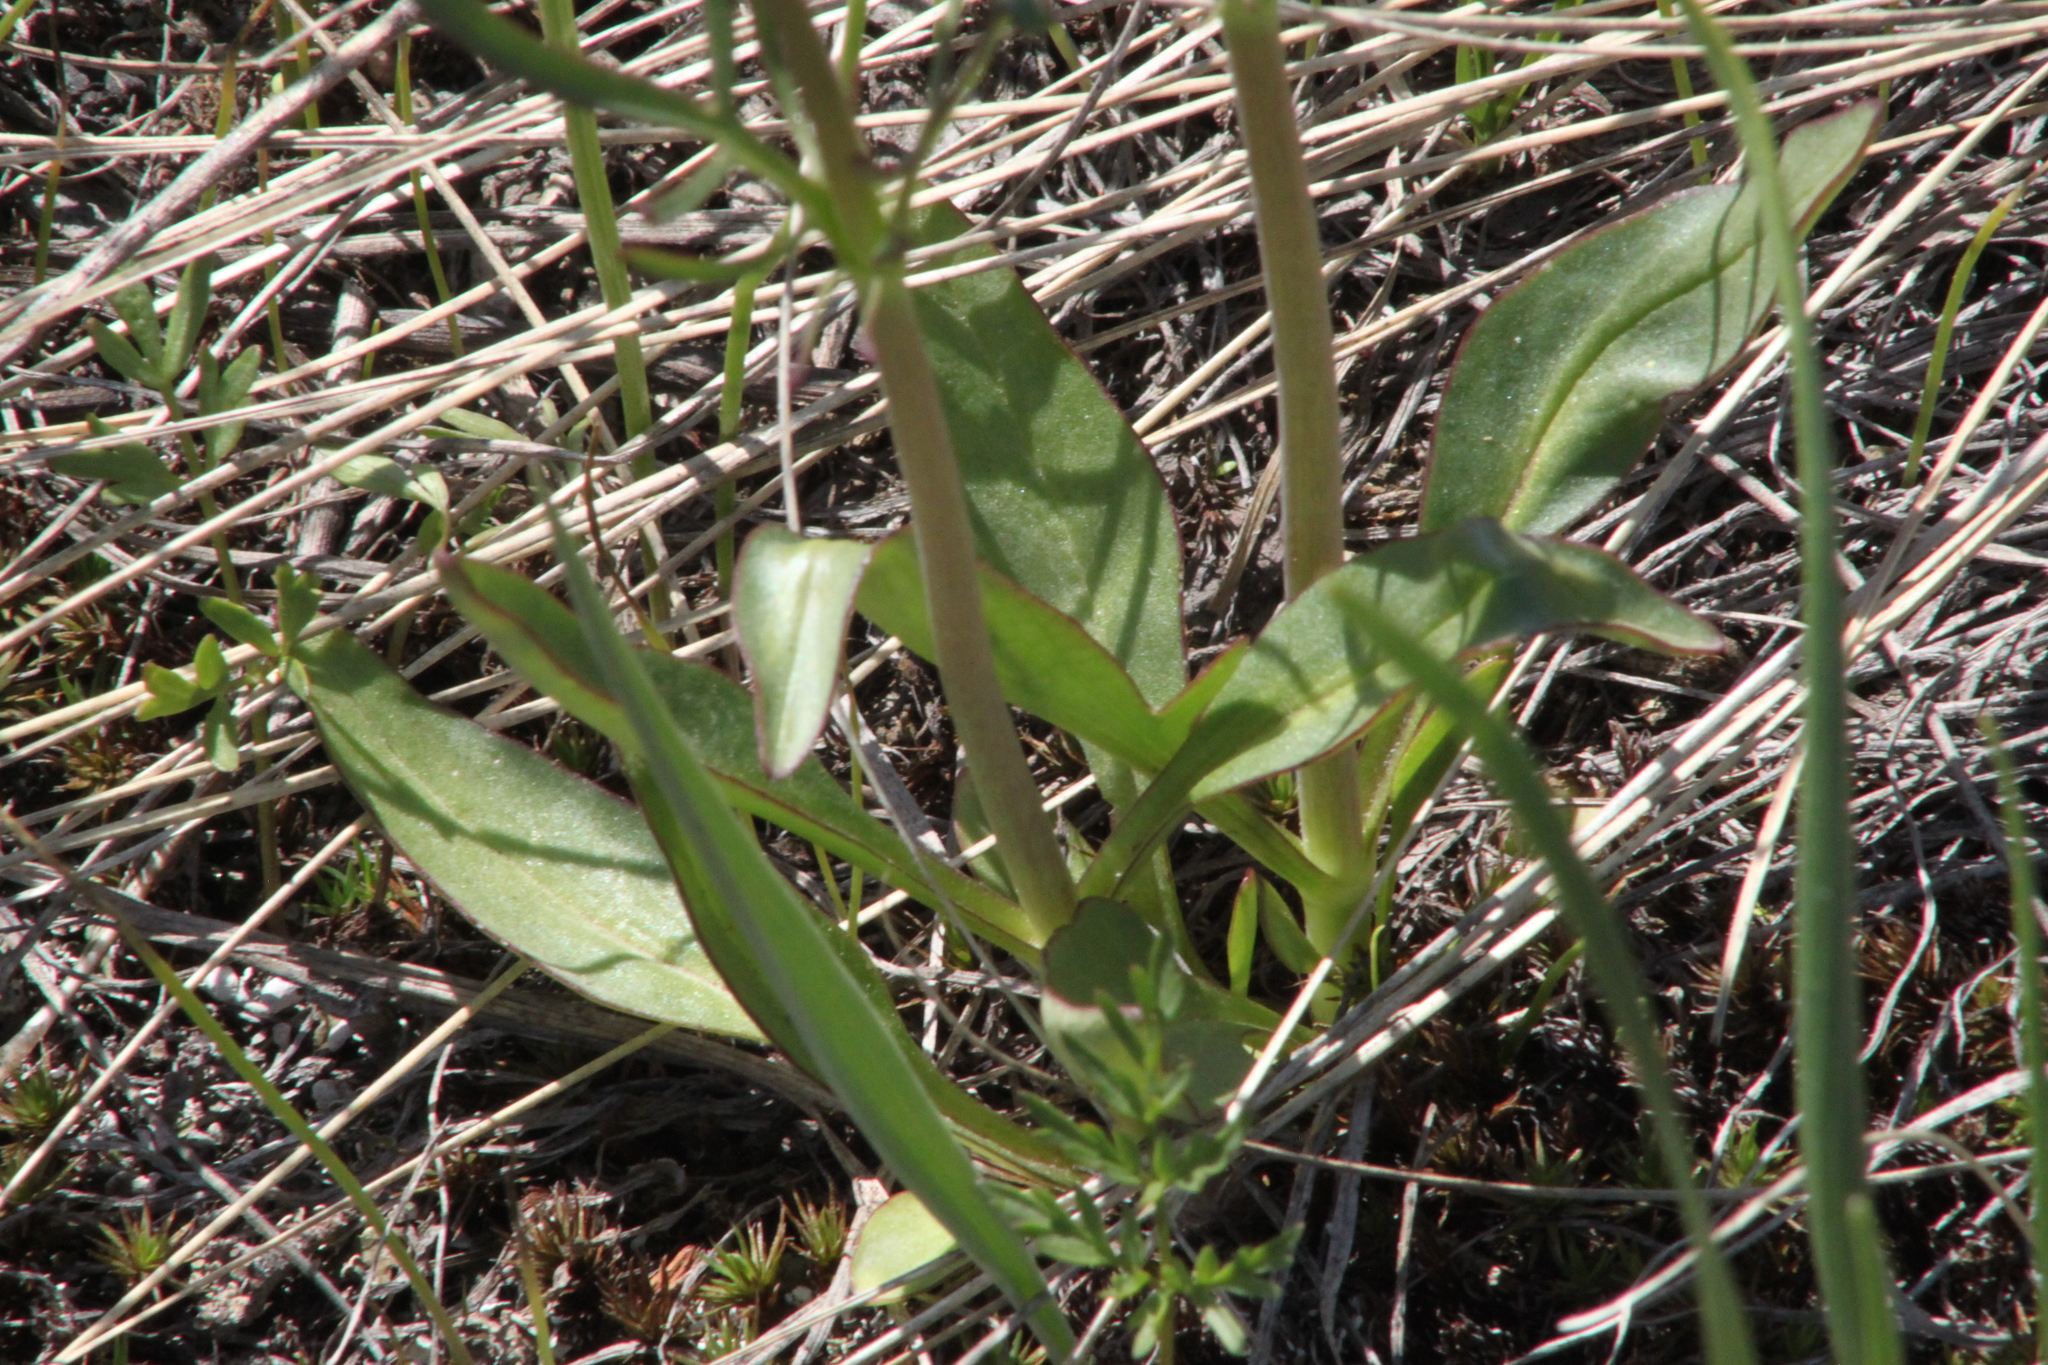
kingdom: Plantae
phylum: Tracheophyta
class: Magnoliopsida
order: Dipsacales
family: Caprifoliaceae
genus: Valeriana
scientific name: Valeriana tuberosa
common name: Tuberous valerian
